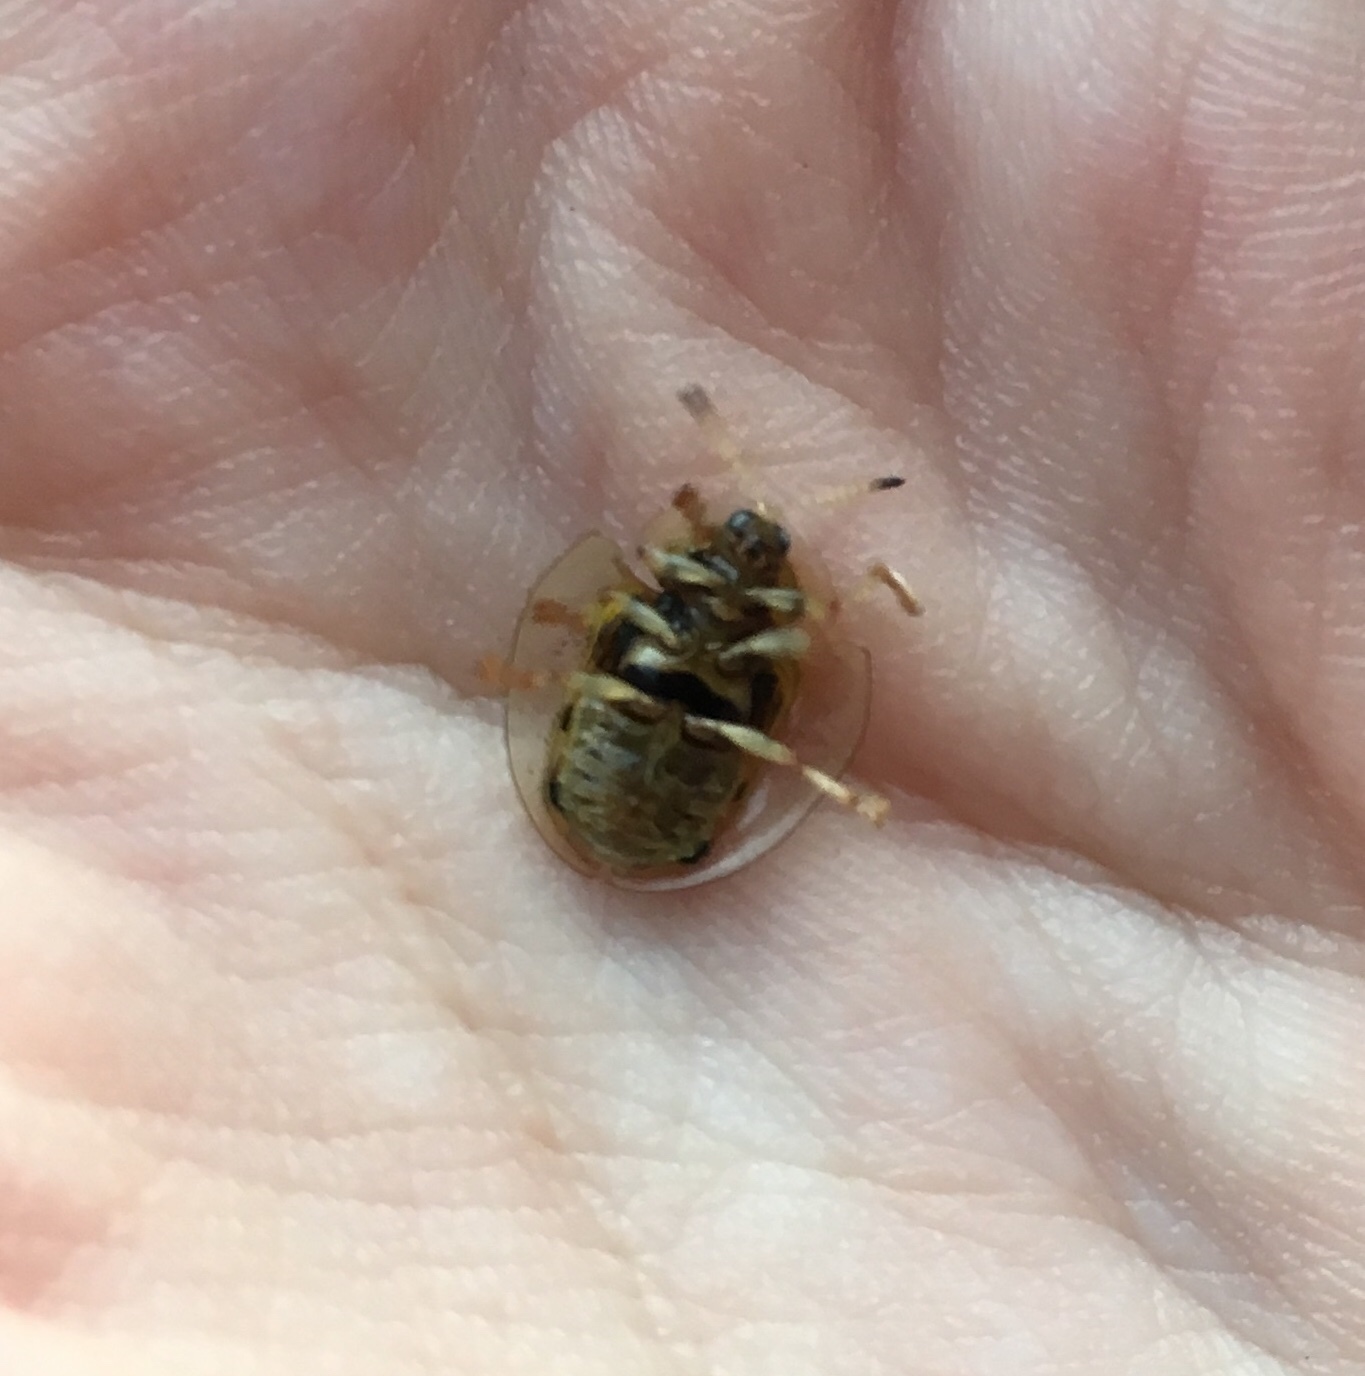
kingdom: Animalia
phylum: Arthropoda
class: Insecta
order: Coleoptera
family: Chrysomelidae
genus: Eurypepla
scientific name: Eurypepla calochroma
